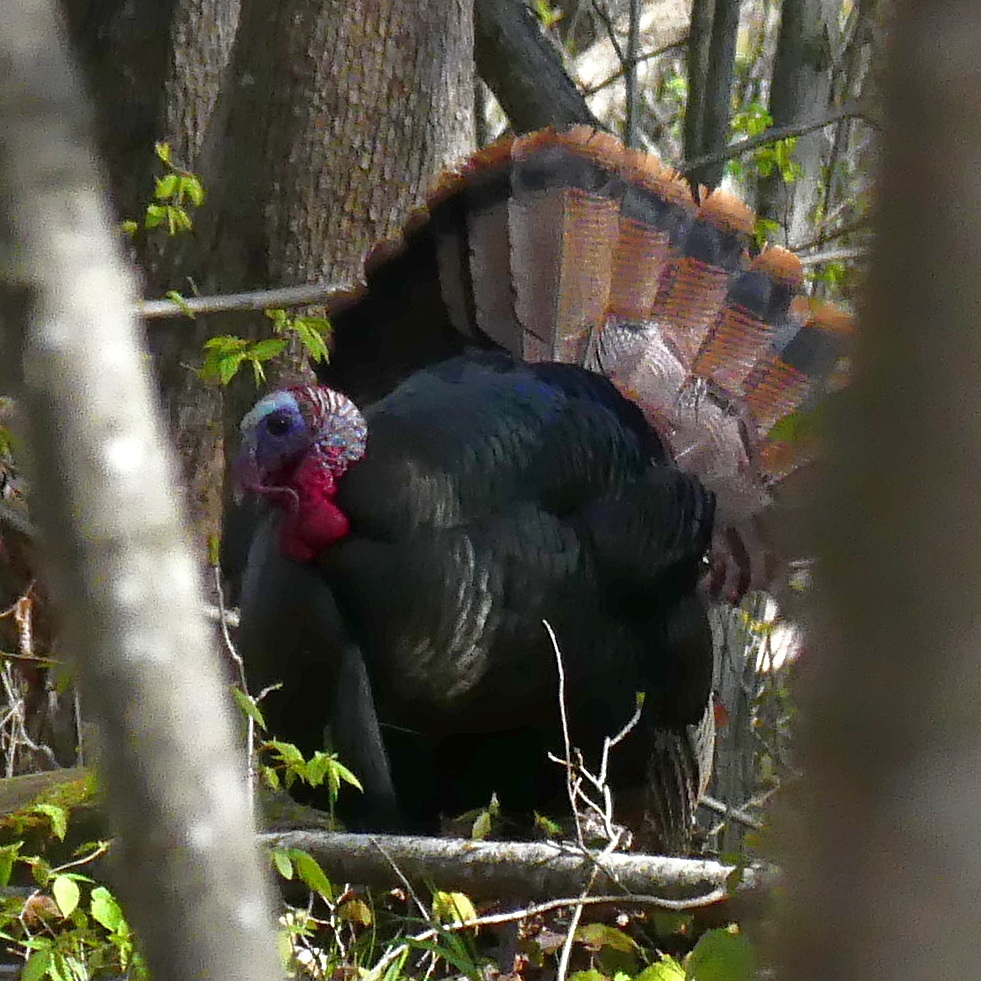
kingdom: Animalia
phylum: Chordata
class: Aves
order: Galliformes
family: Phasianidae
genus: Meleagris
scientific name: Meleagris gallopavo
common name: Wild turkey
